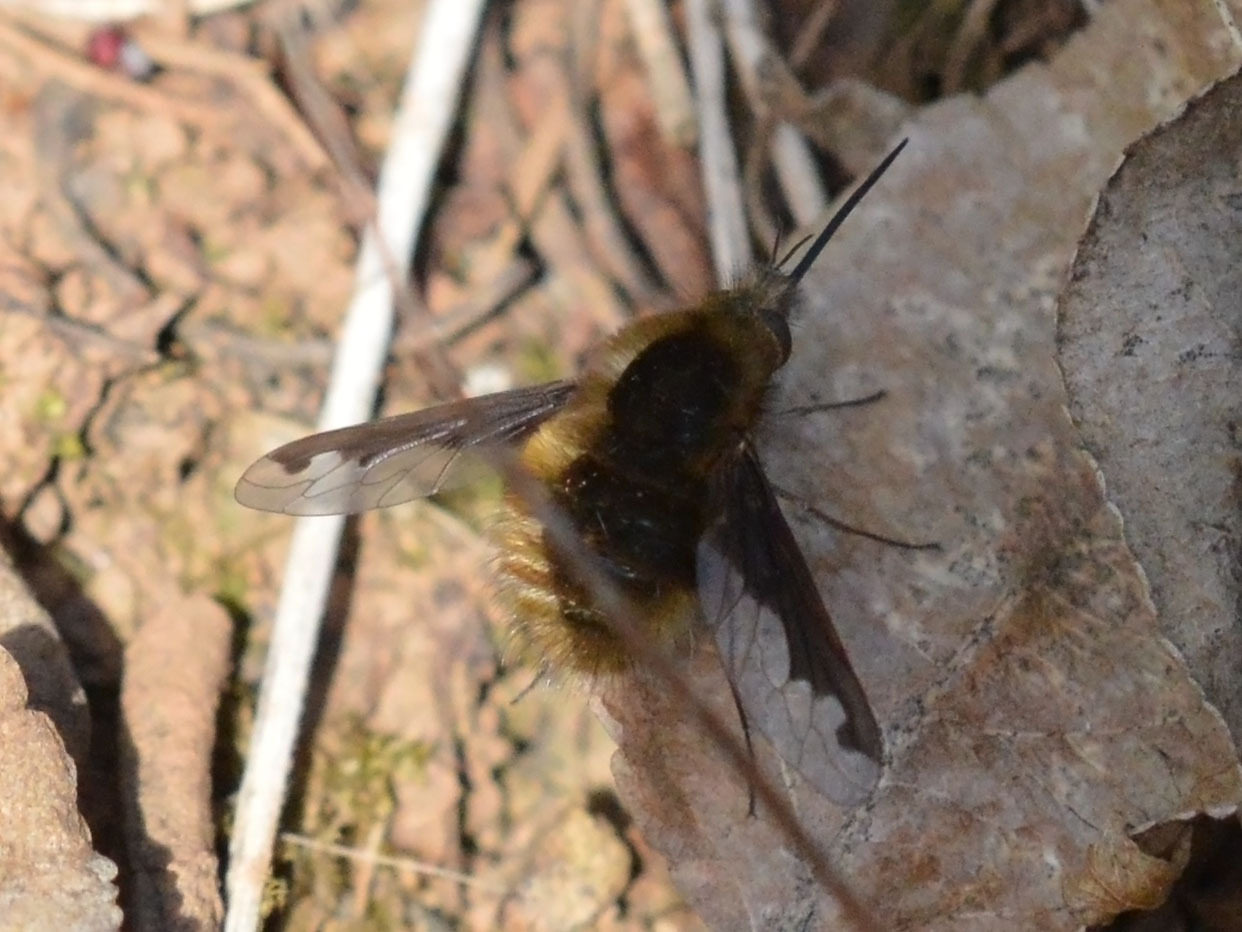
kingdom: Animalia
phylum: Arthropoda
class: Insecta
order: Diptera
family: Bombyliidae
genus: Bombylius
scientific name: Bombylius major
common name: Bee fly
